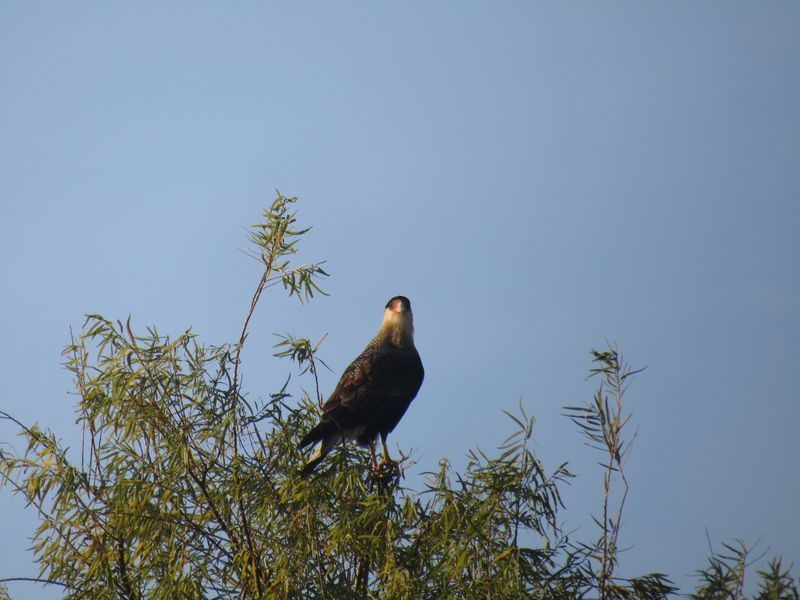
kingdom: Animalia
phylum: Chordata
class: Aves
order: Falconiformes
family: Falconidae
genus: Caracara
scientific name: Caracara plancus
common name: Southern caracara
